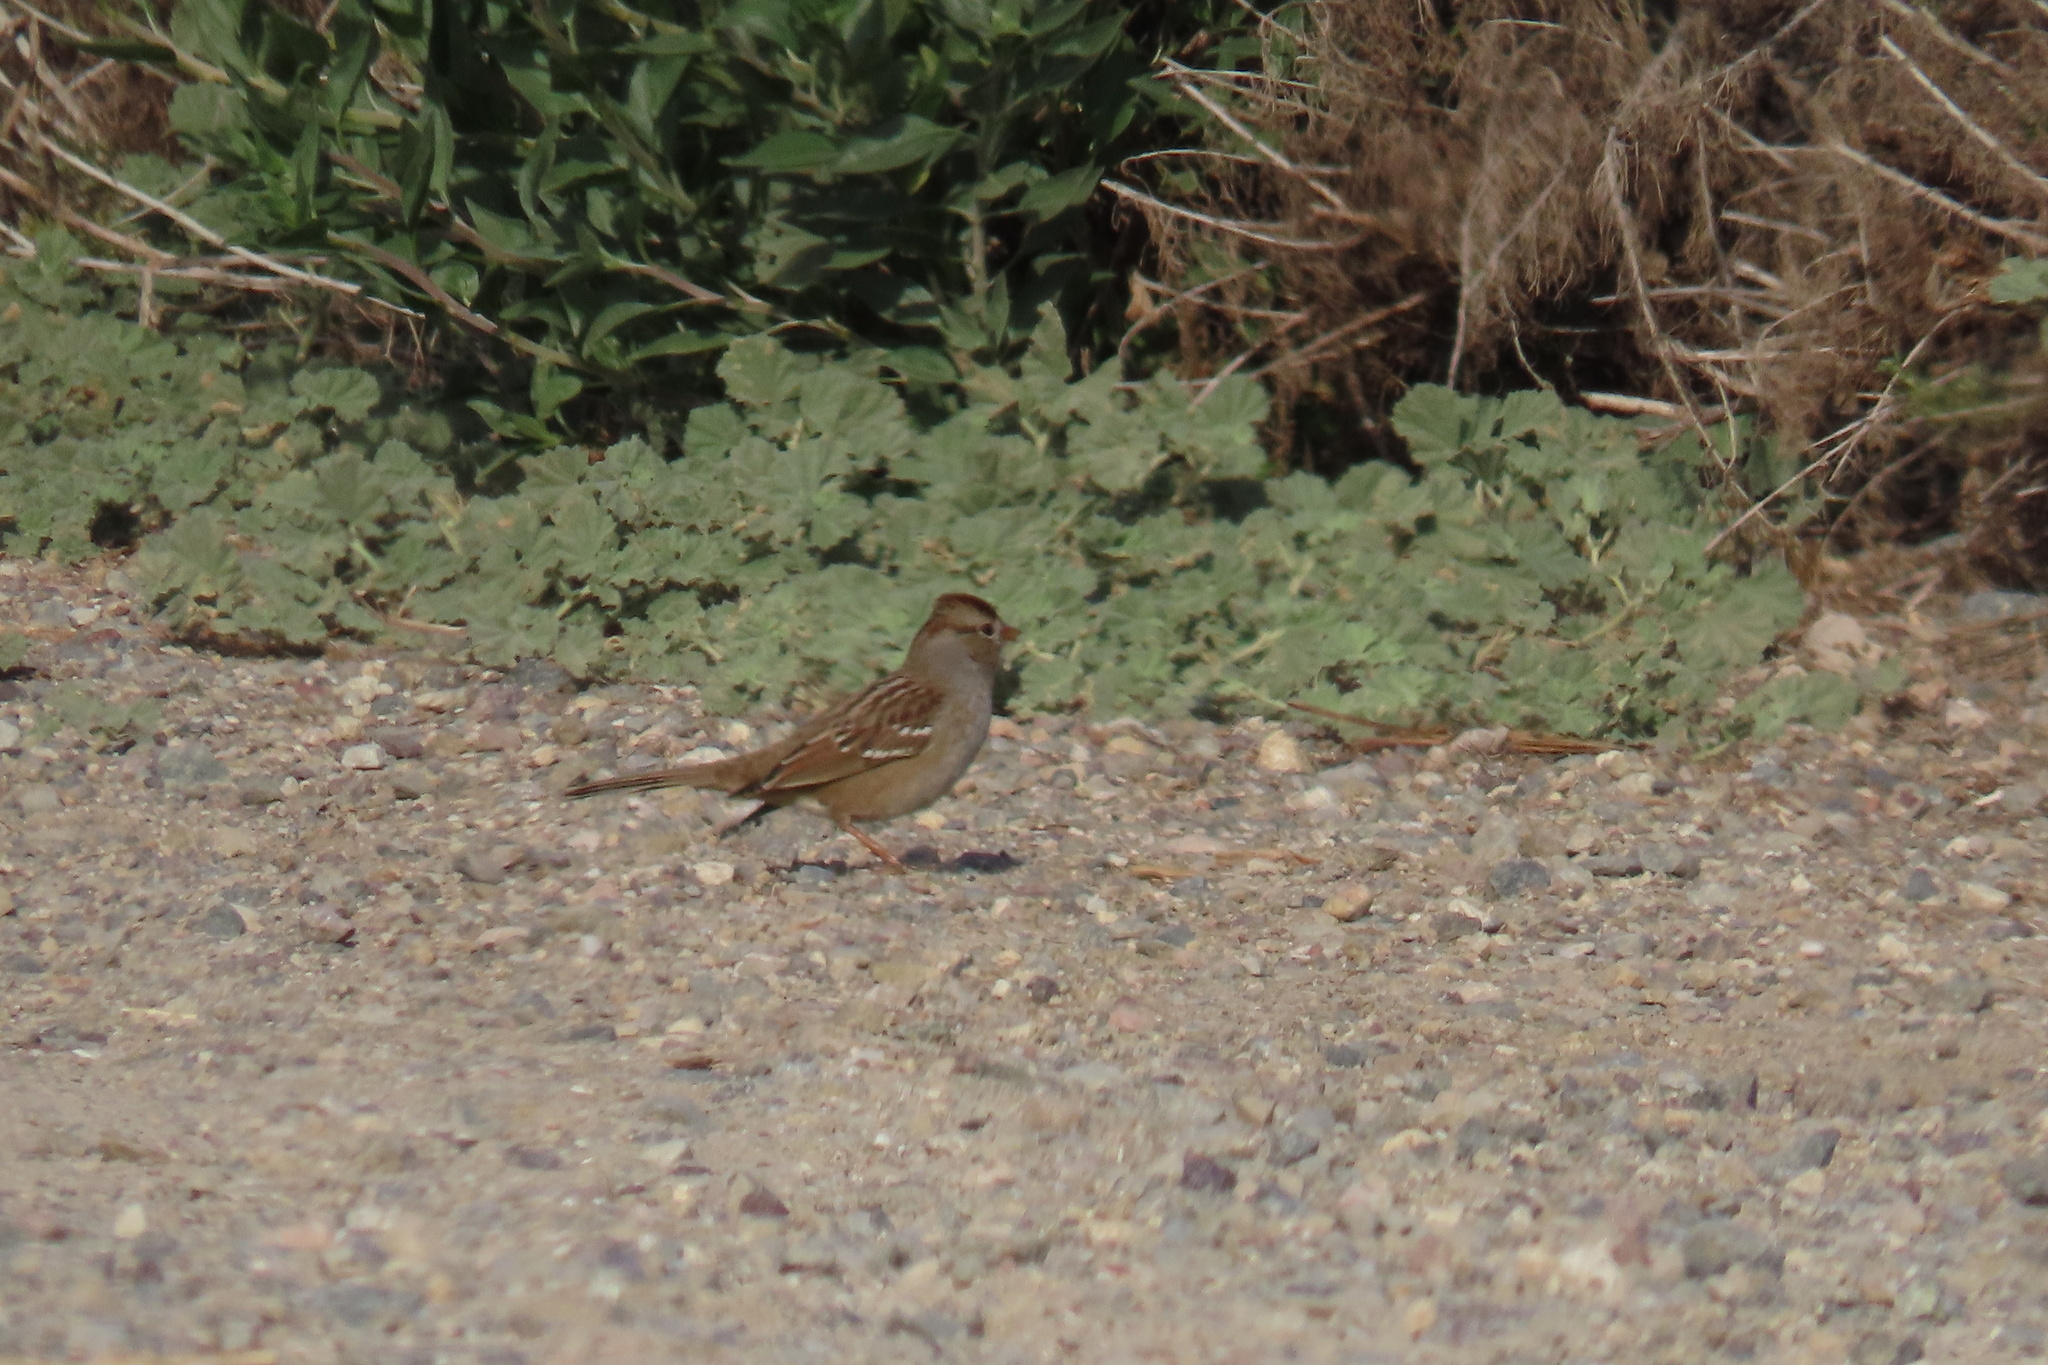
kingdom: Animalia
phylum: Chordata
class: Aves
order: Passeriformes
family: Passerellidae
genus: Zonotrichia
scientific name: Zonotrichia leucophrys
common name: White-crowned sparrow
